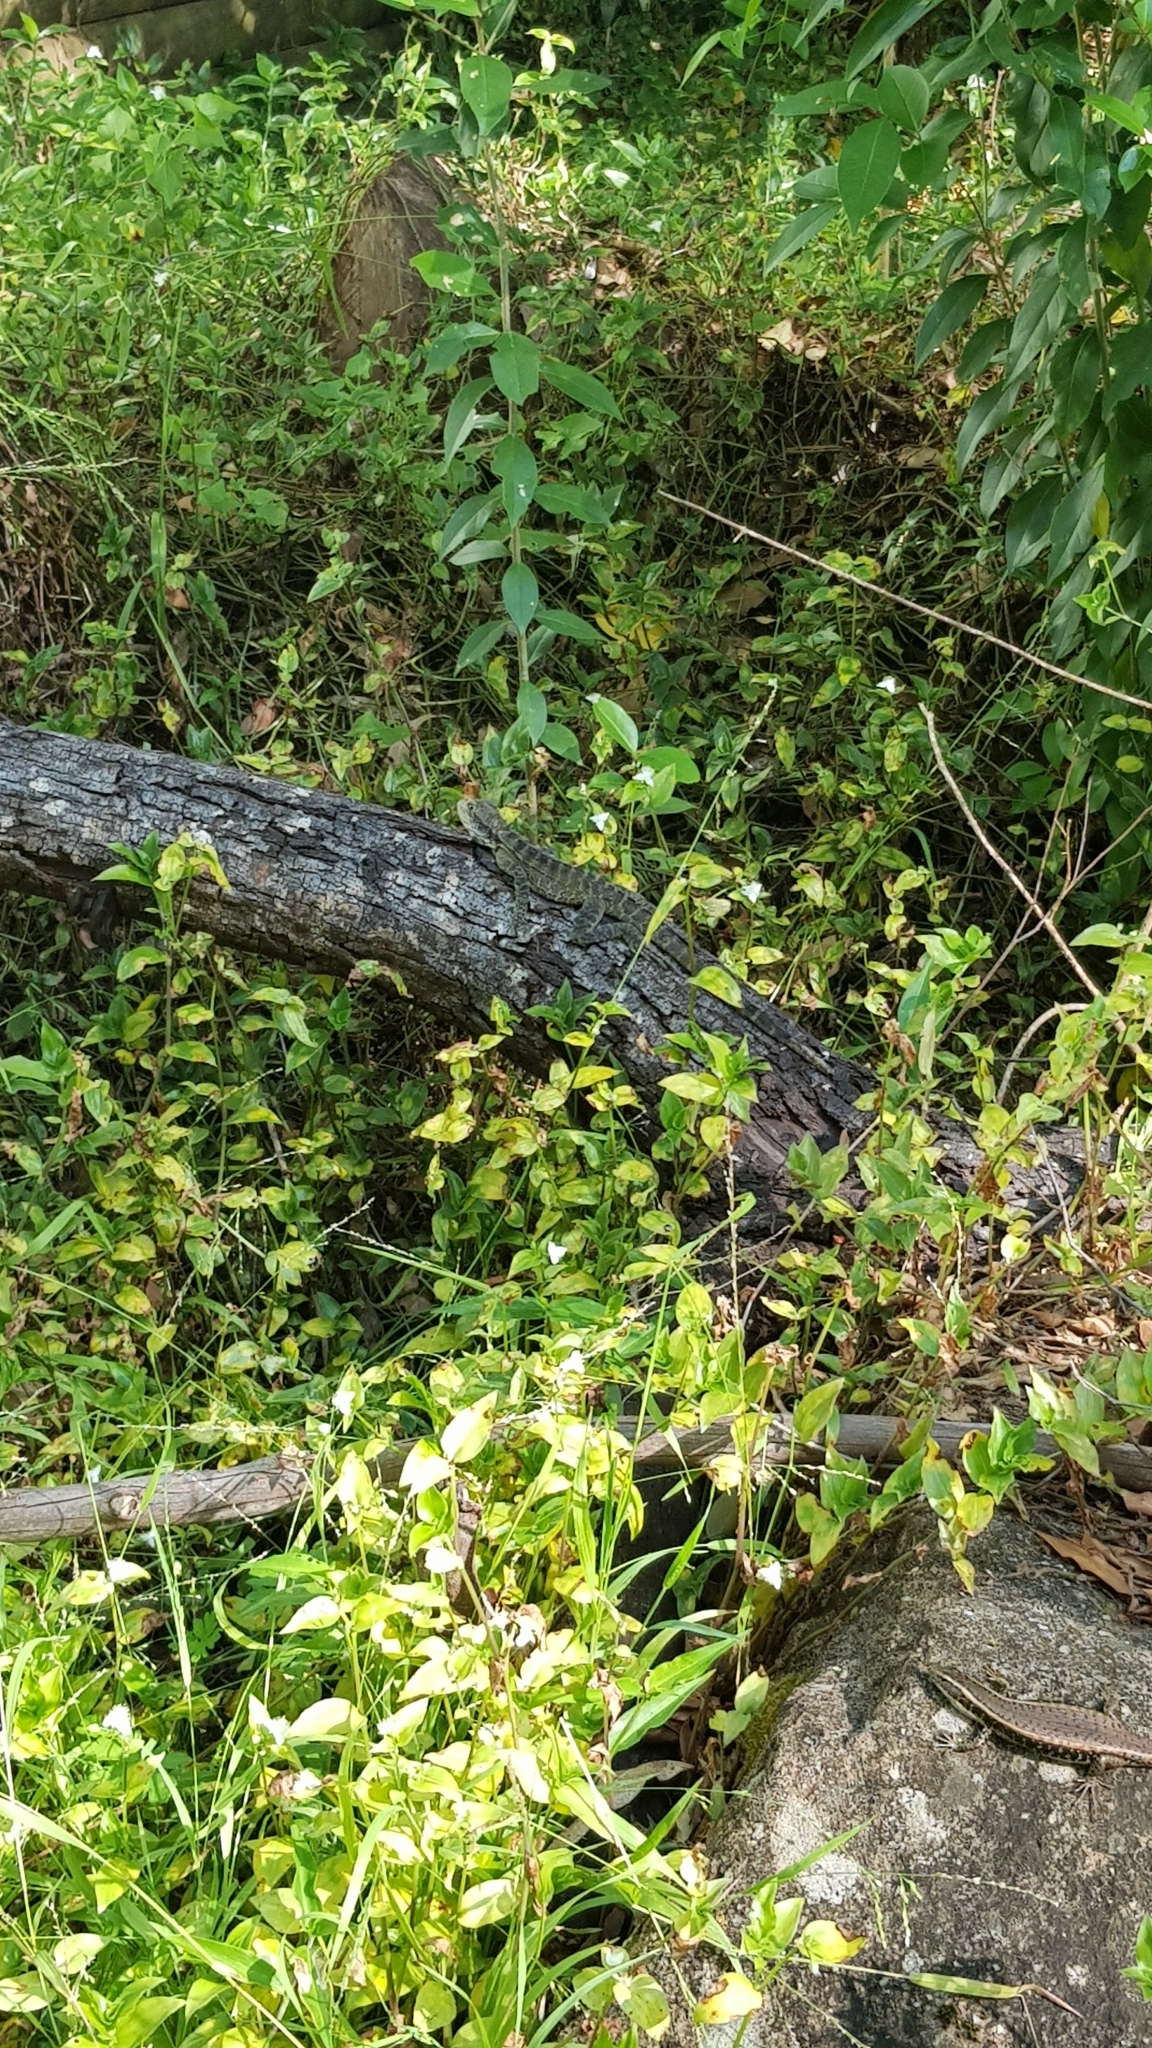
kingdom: Animalia
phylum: Chordata
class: Squamata
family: Agamidae
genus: Intellagama
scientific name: Intellagama lesueurii
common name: Eastern water dragon
